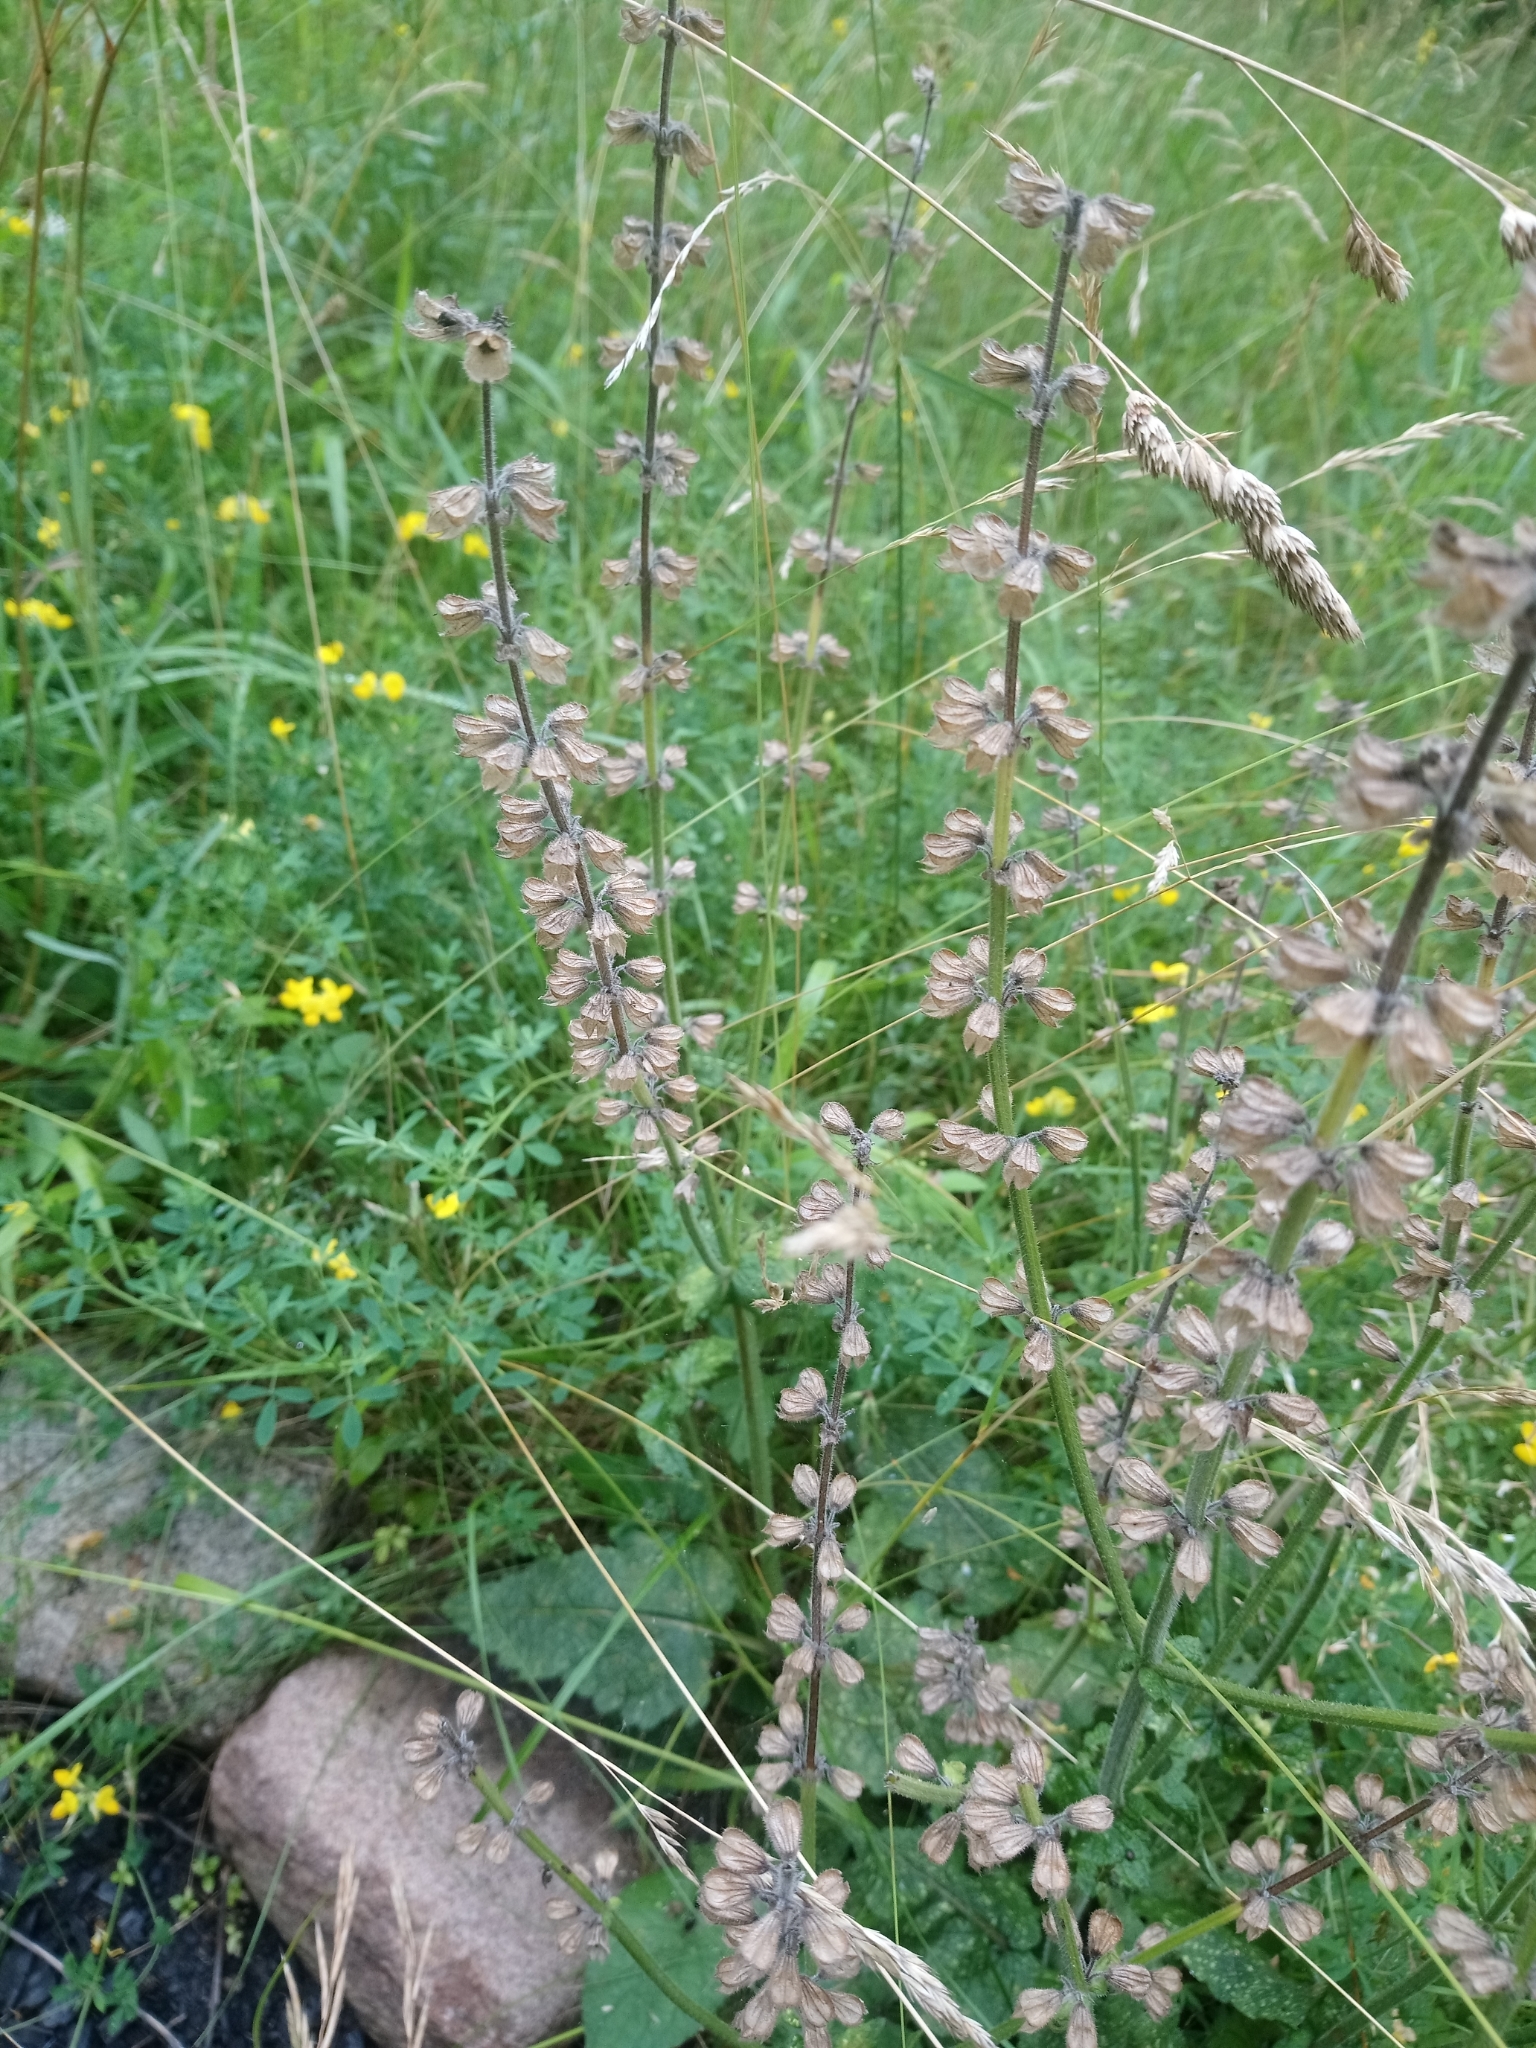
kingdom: Plantae
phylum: Tracheophyta
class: Magnoliopsida
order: Lamiales
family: Lamiaceae
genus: Salvia
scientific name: Salvia pratensis
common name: Meadow sage
